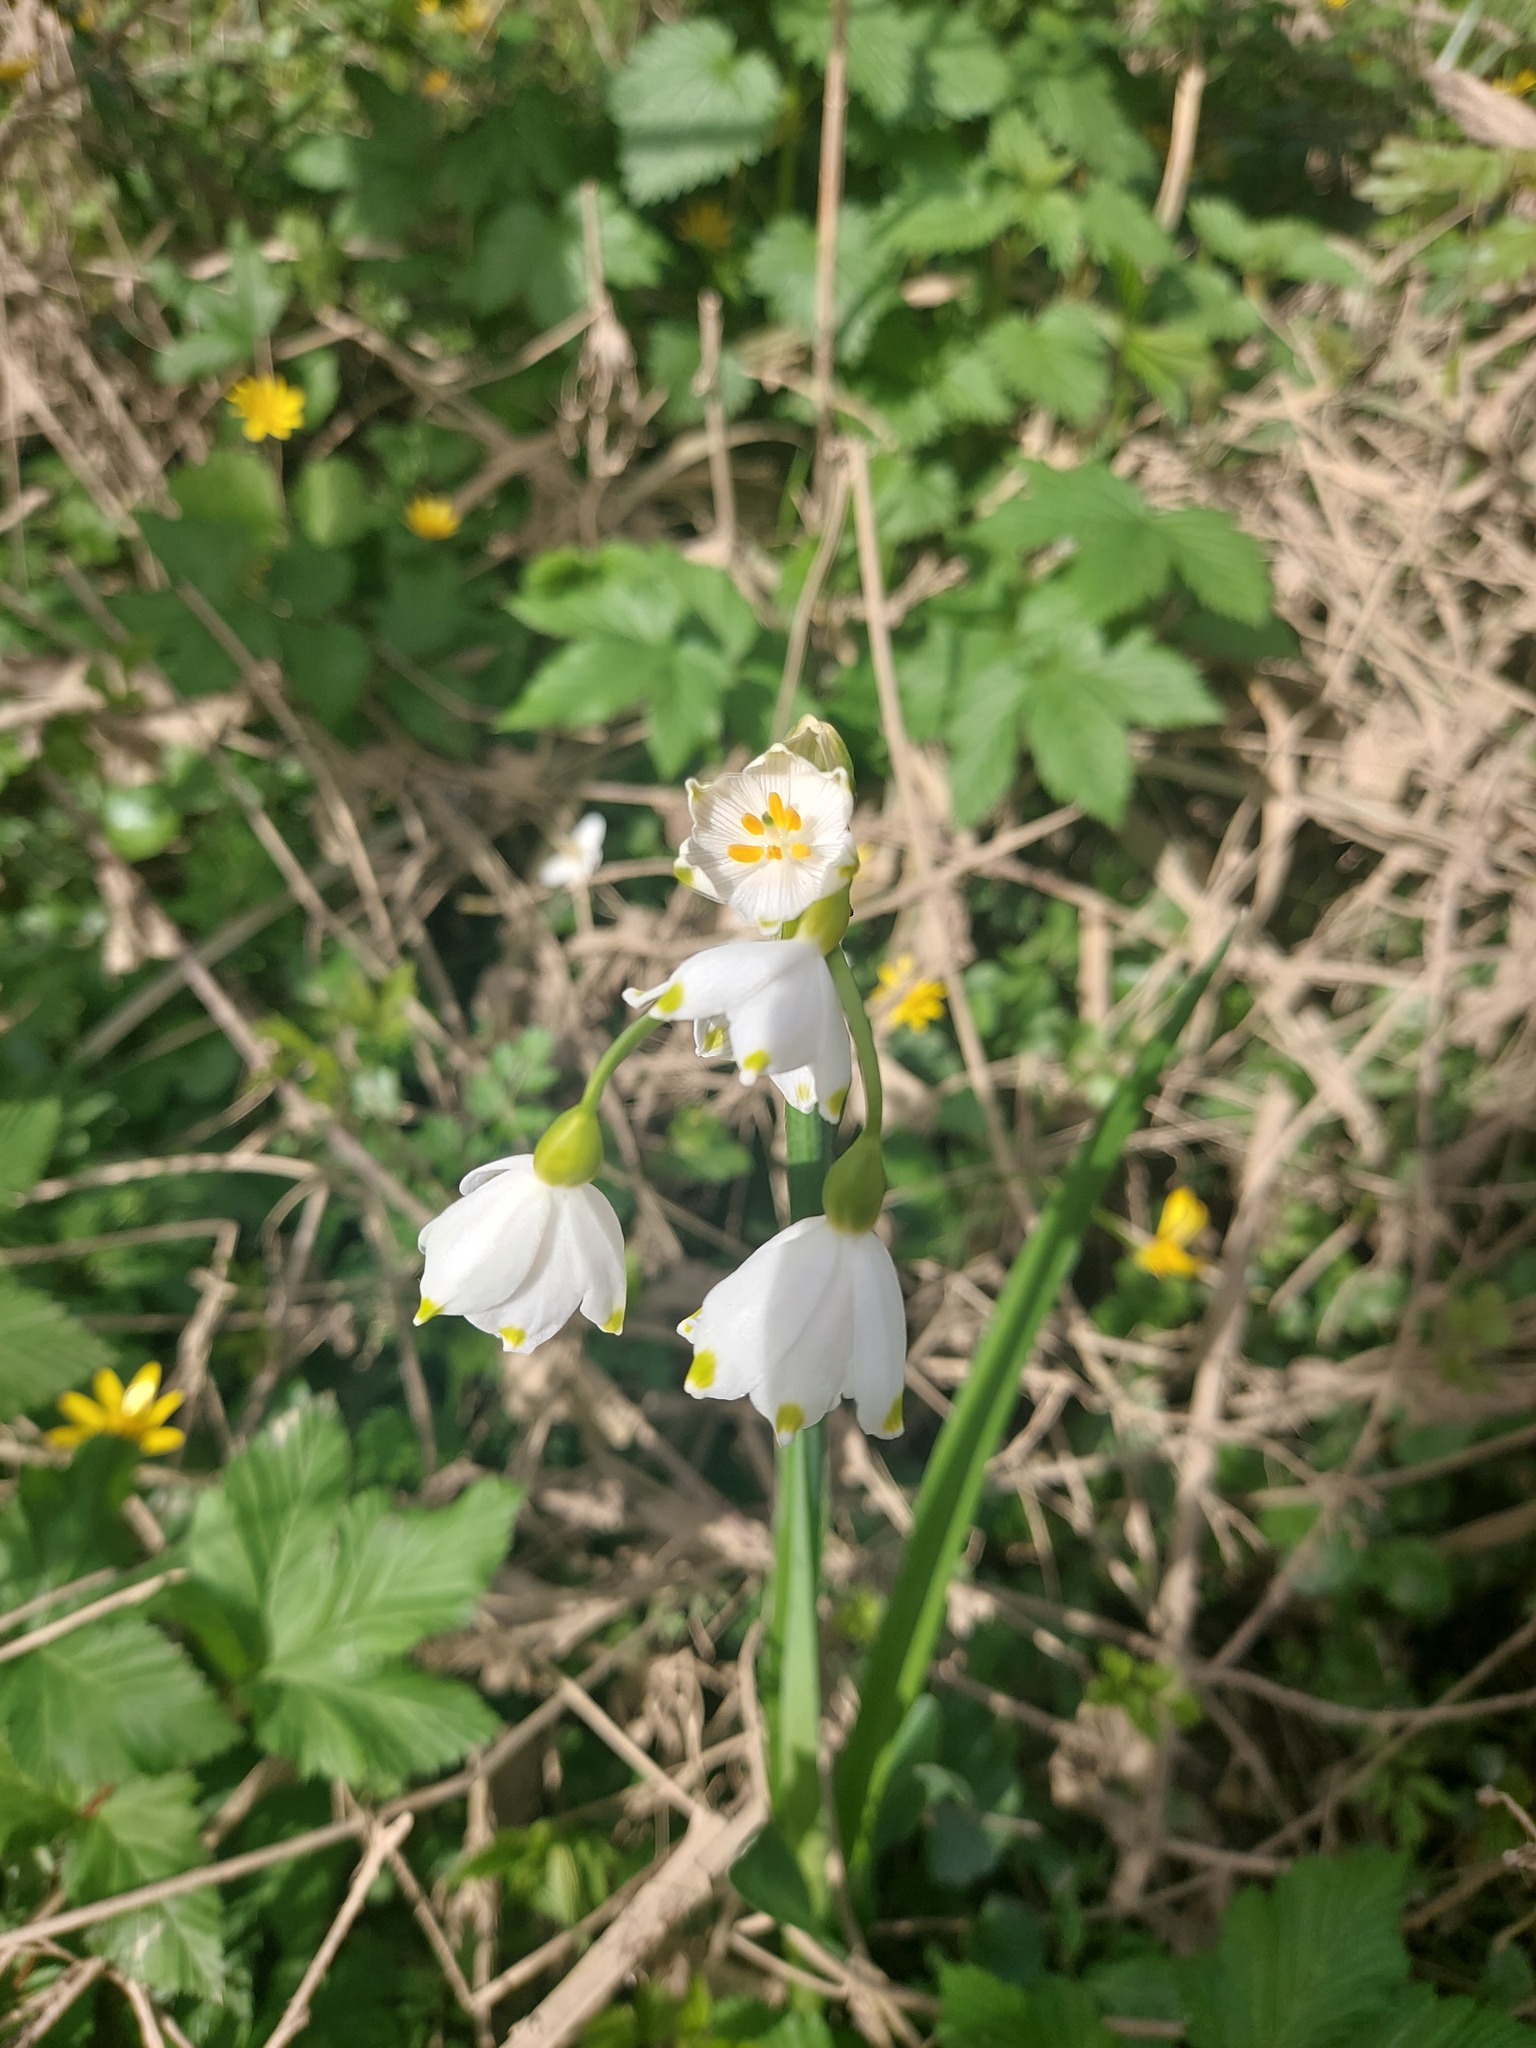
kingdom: Plantae
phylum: Tracheophyta
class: Liliopsida
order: Asparagales
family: Amaryllidaceae
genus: Leucojum
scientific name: Leucojum aestivum
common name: Summer snowflake
